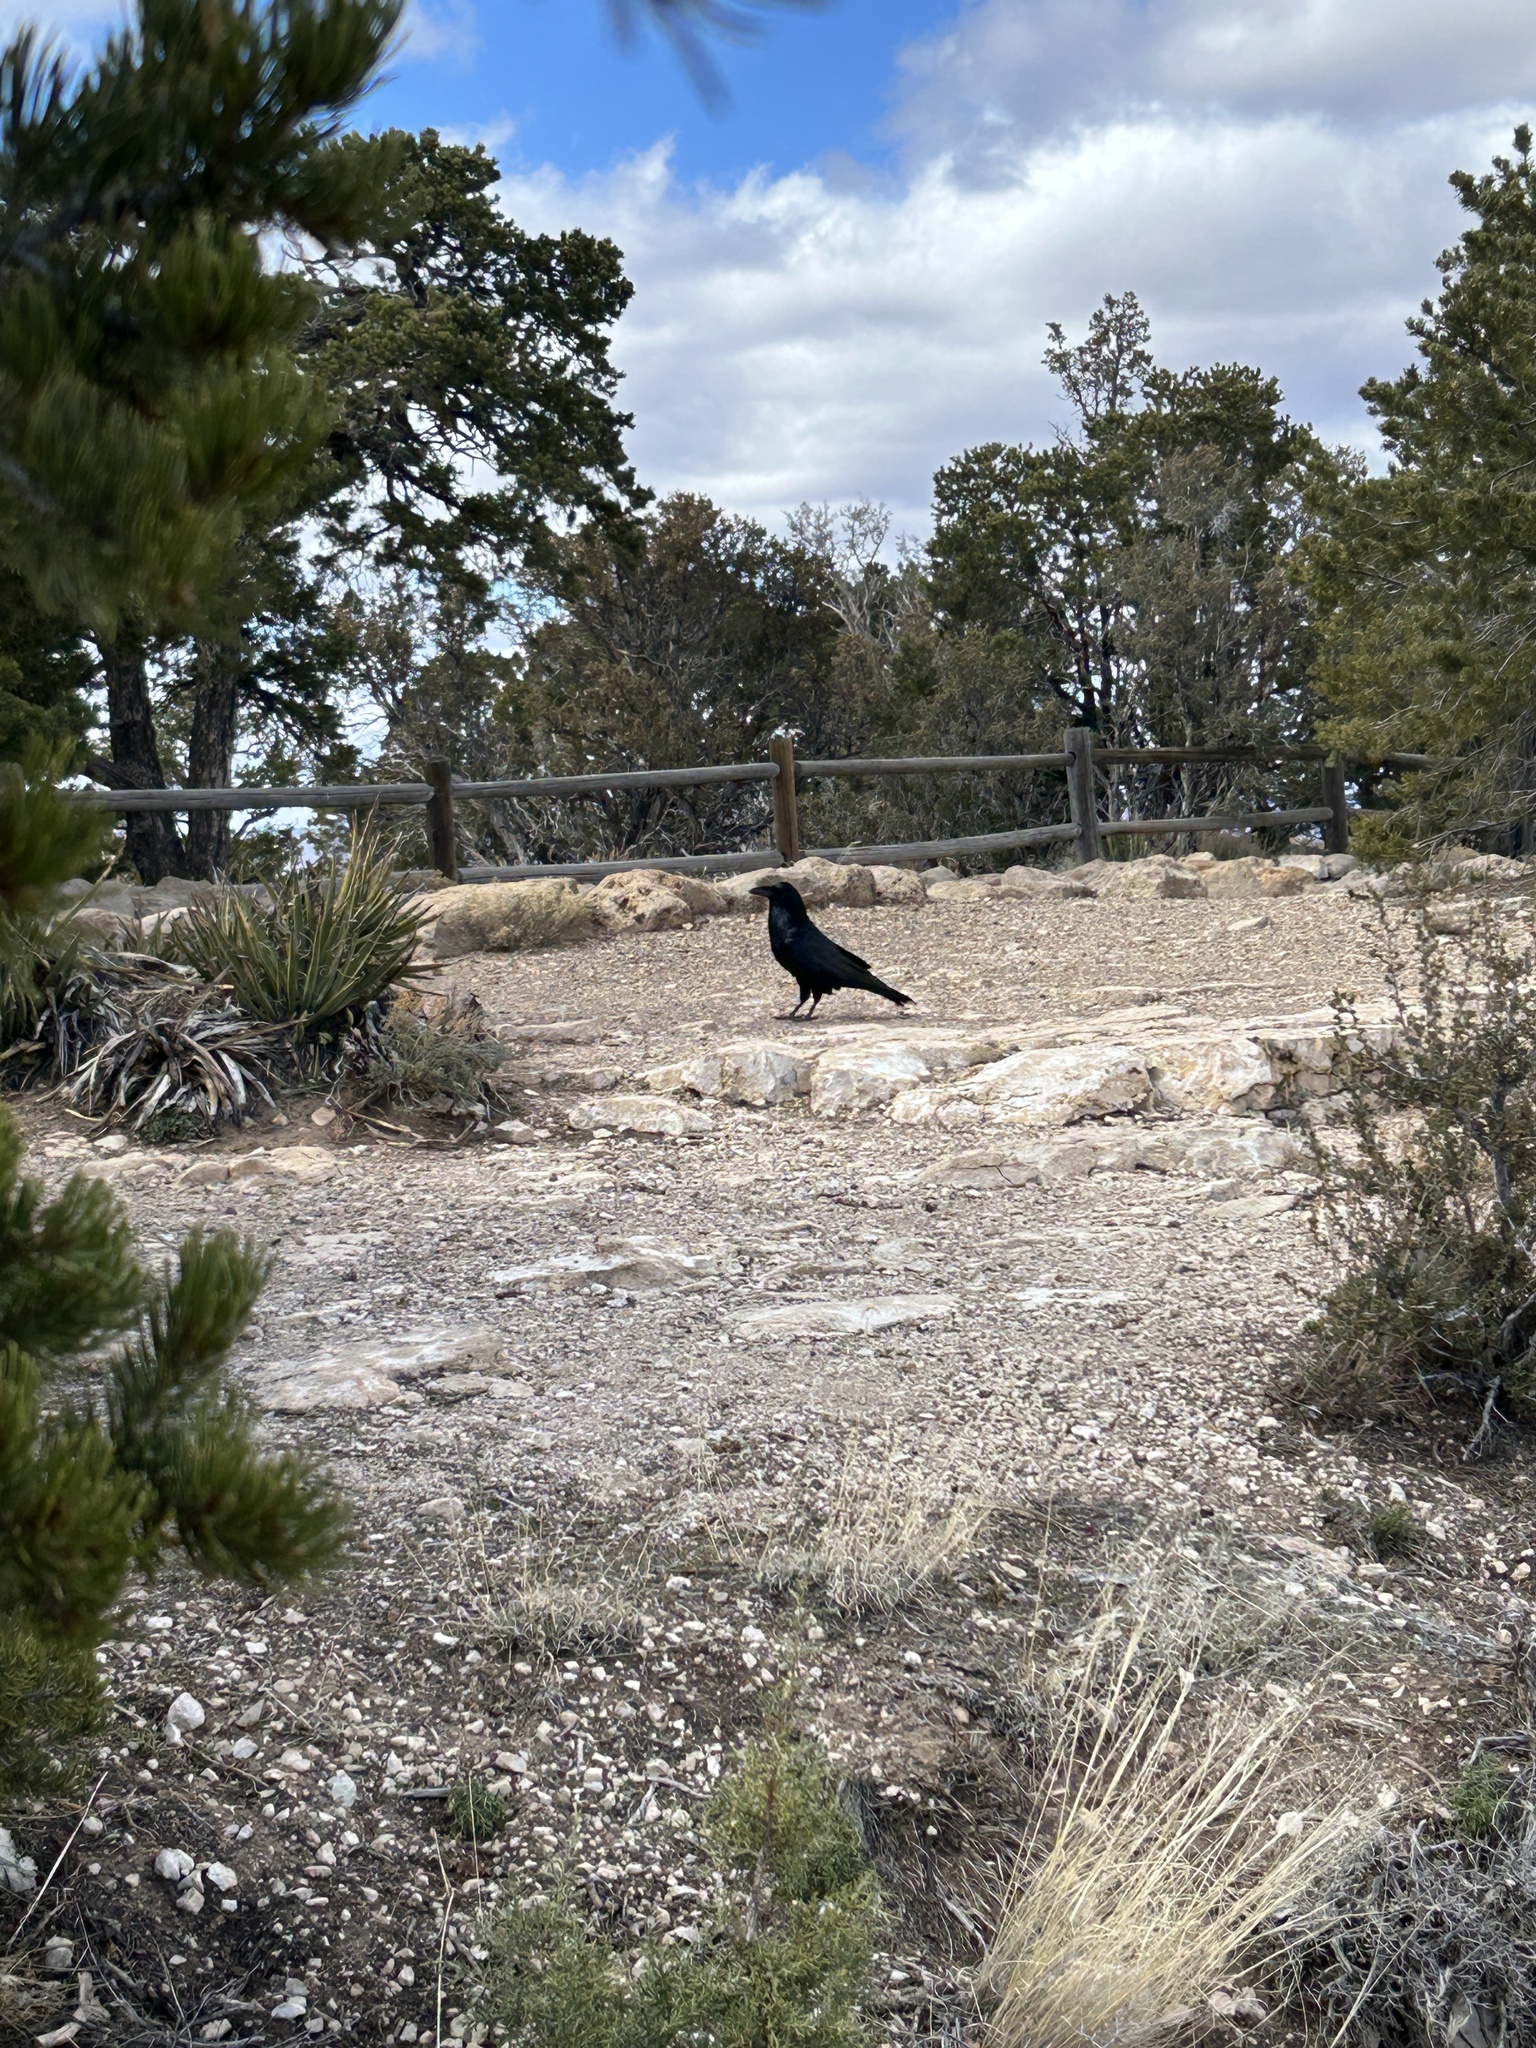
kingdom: Animalia
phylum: Chordata
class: Aves
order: Passeriformes
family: Corvidae
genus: Corvus
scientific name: Corvus corax
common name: Common raven
